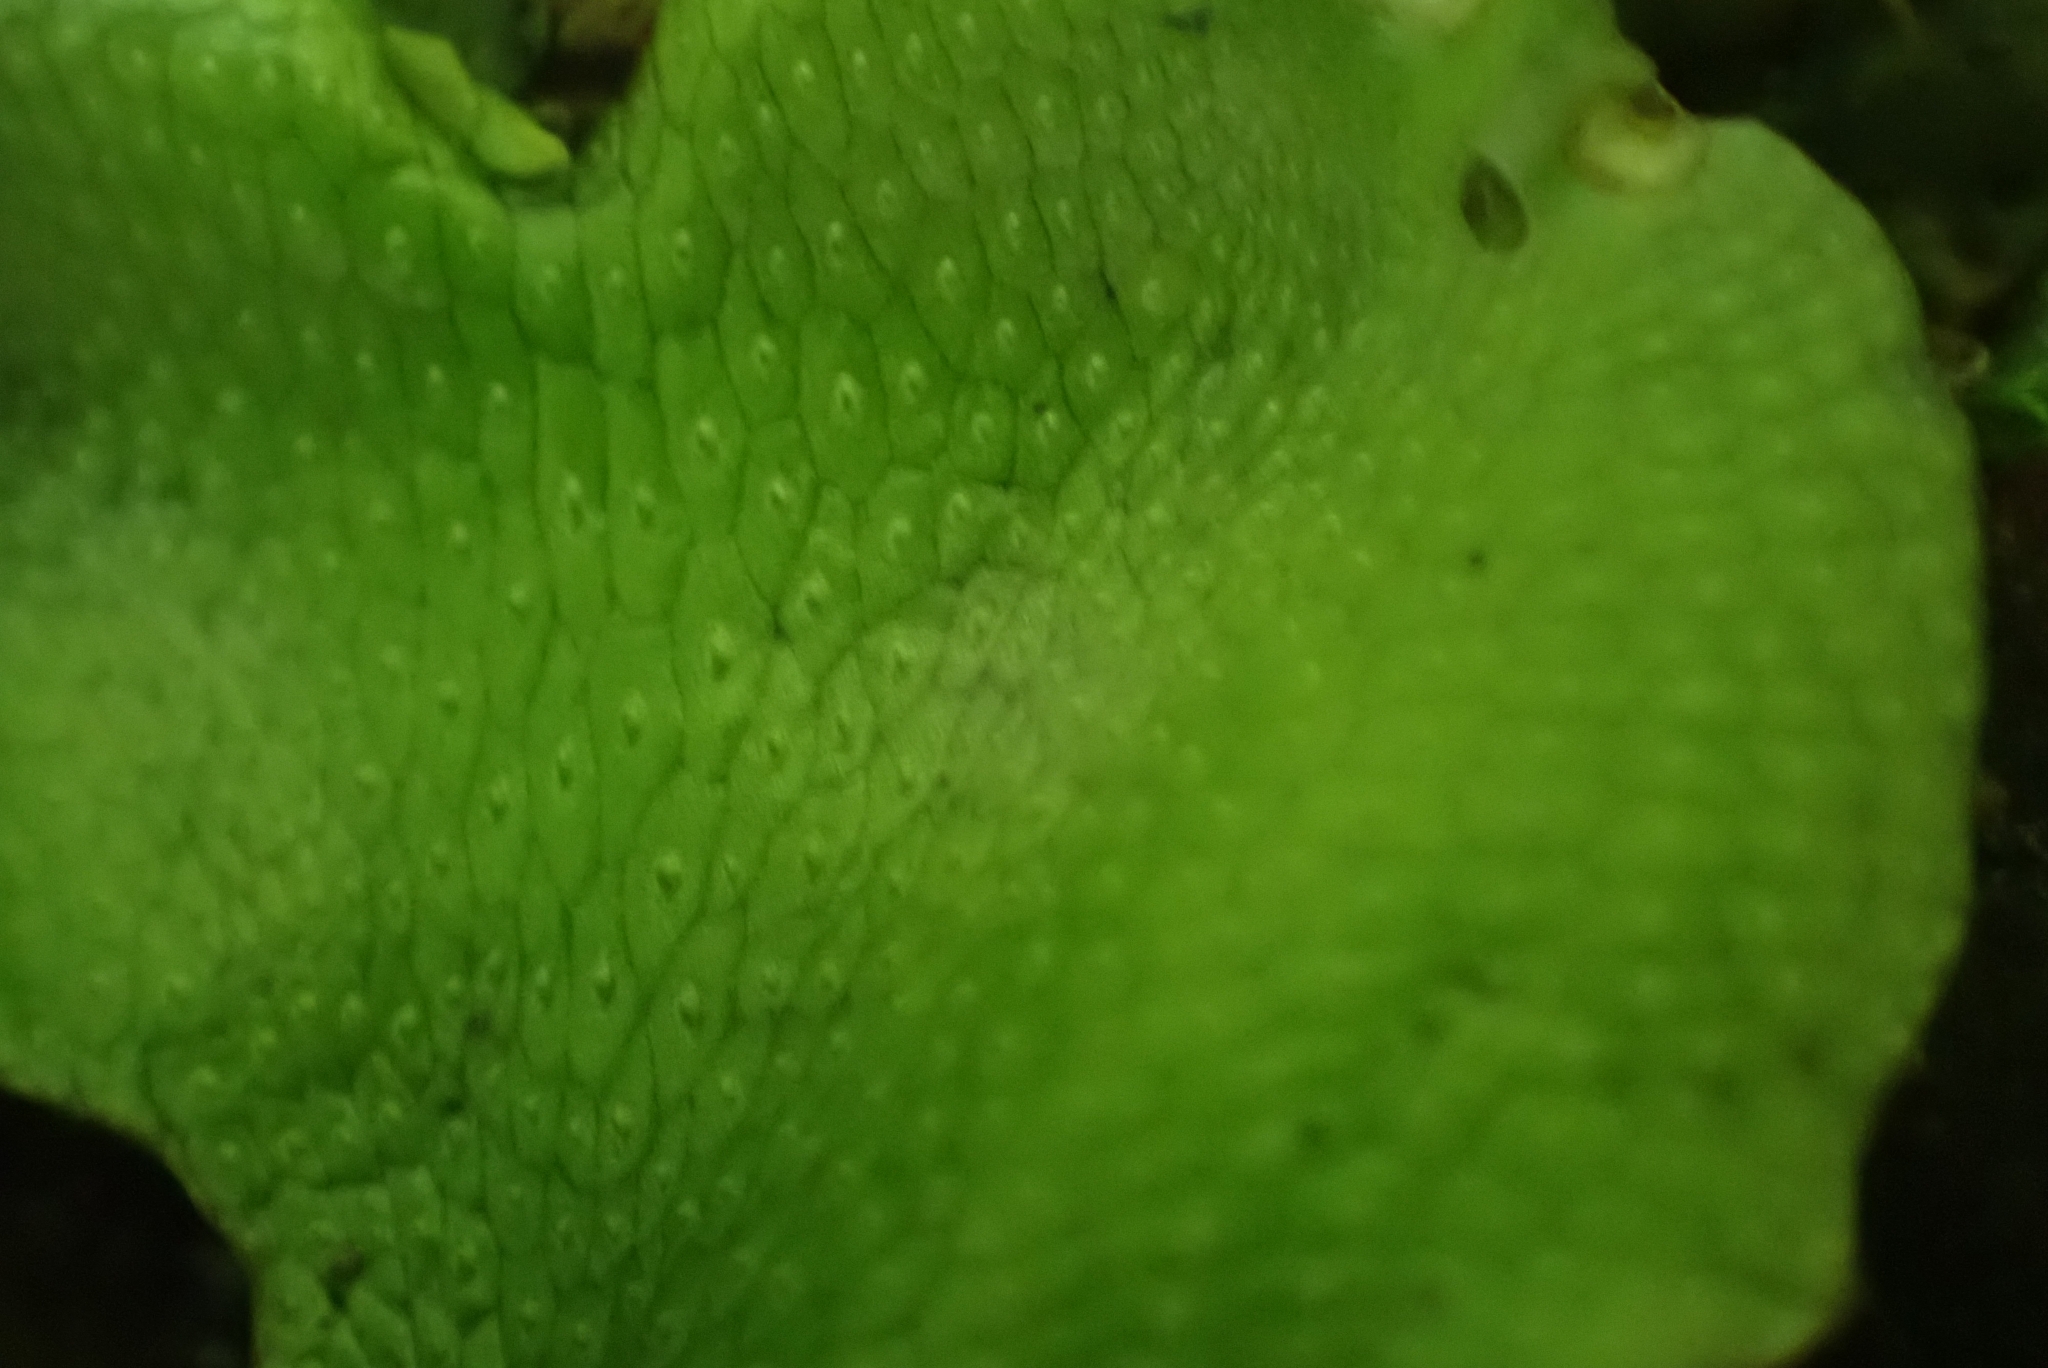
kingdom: Plantae
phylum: Marchantiophyta
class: Marchantiopsida
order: Marchantiales
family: Conocephalaceae
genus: Conocephalum
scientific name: Conocephalum conicum
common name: Great scented liverwort
